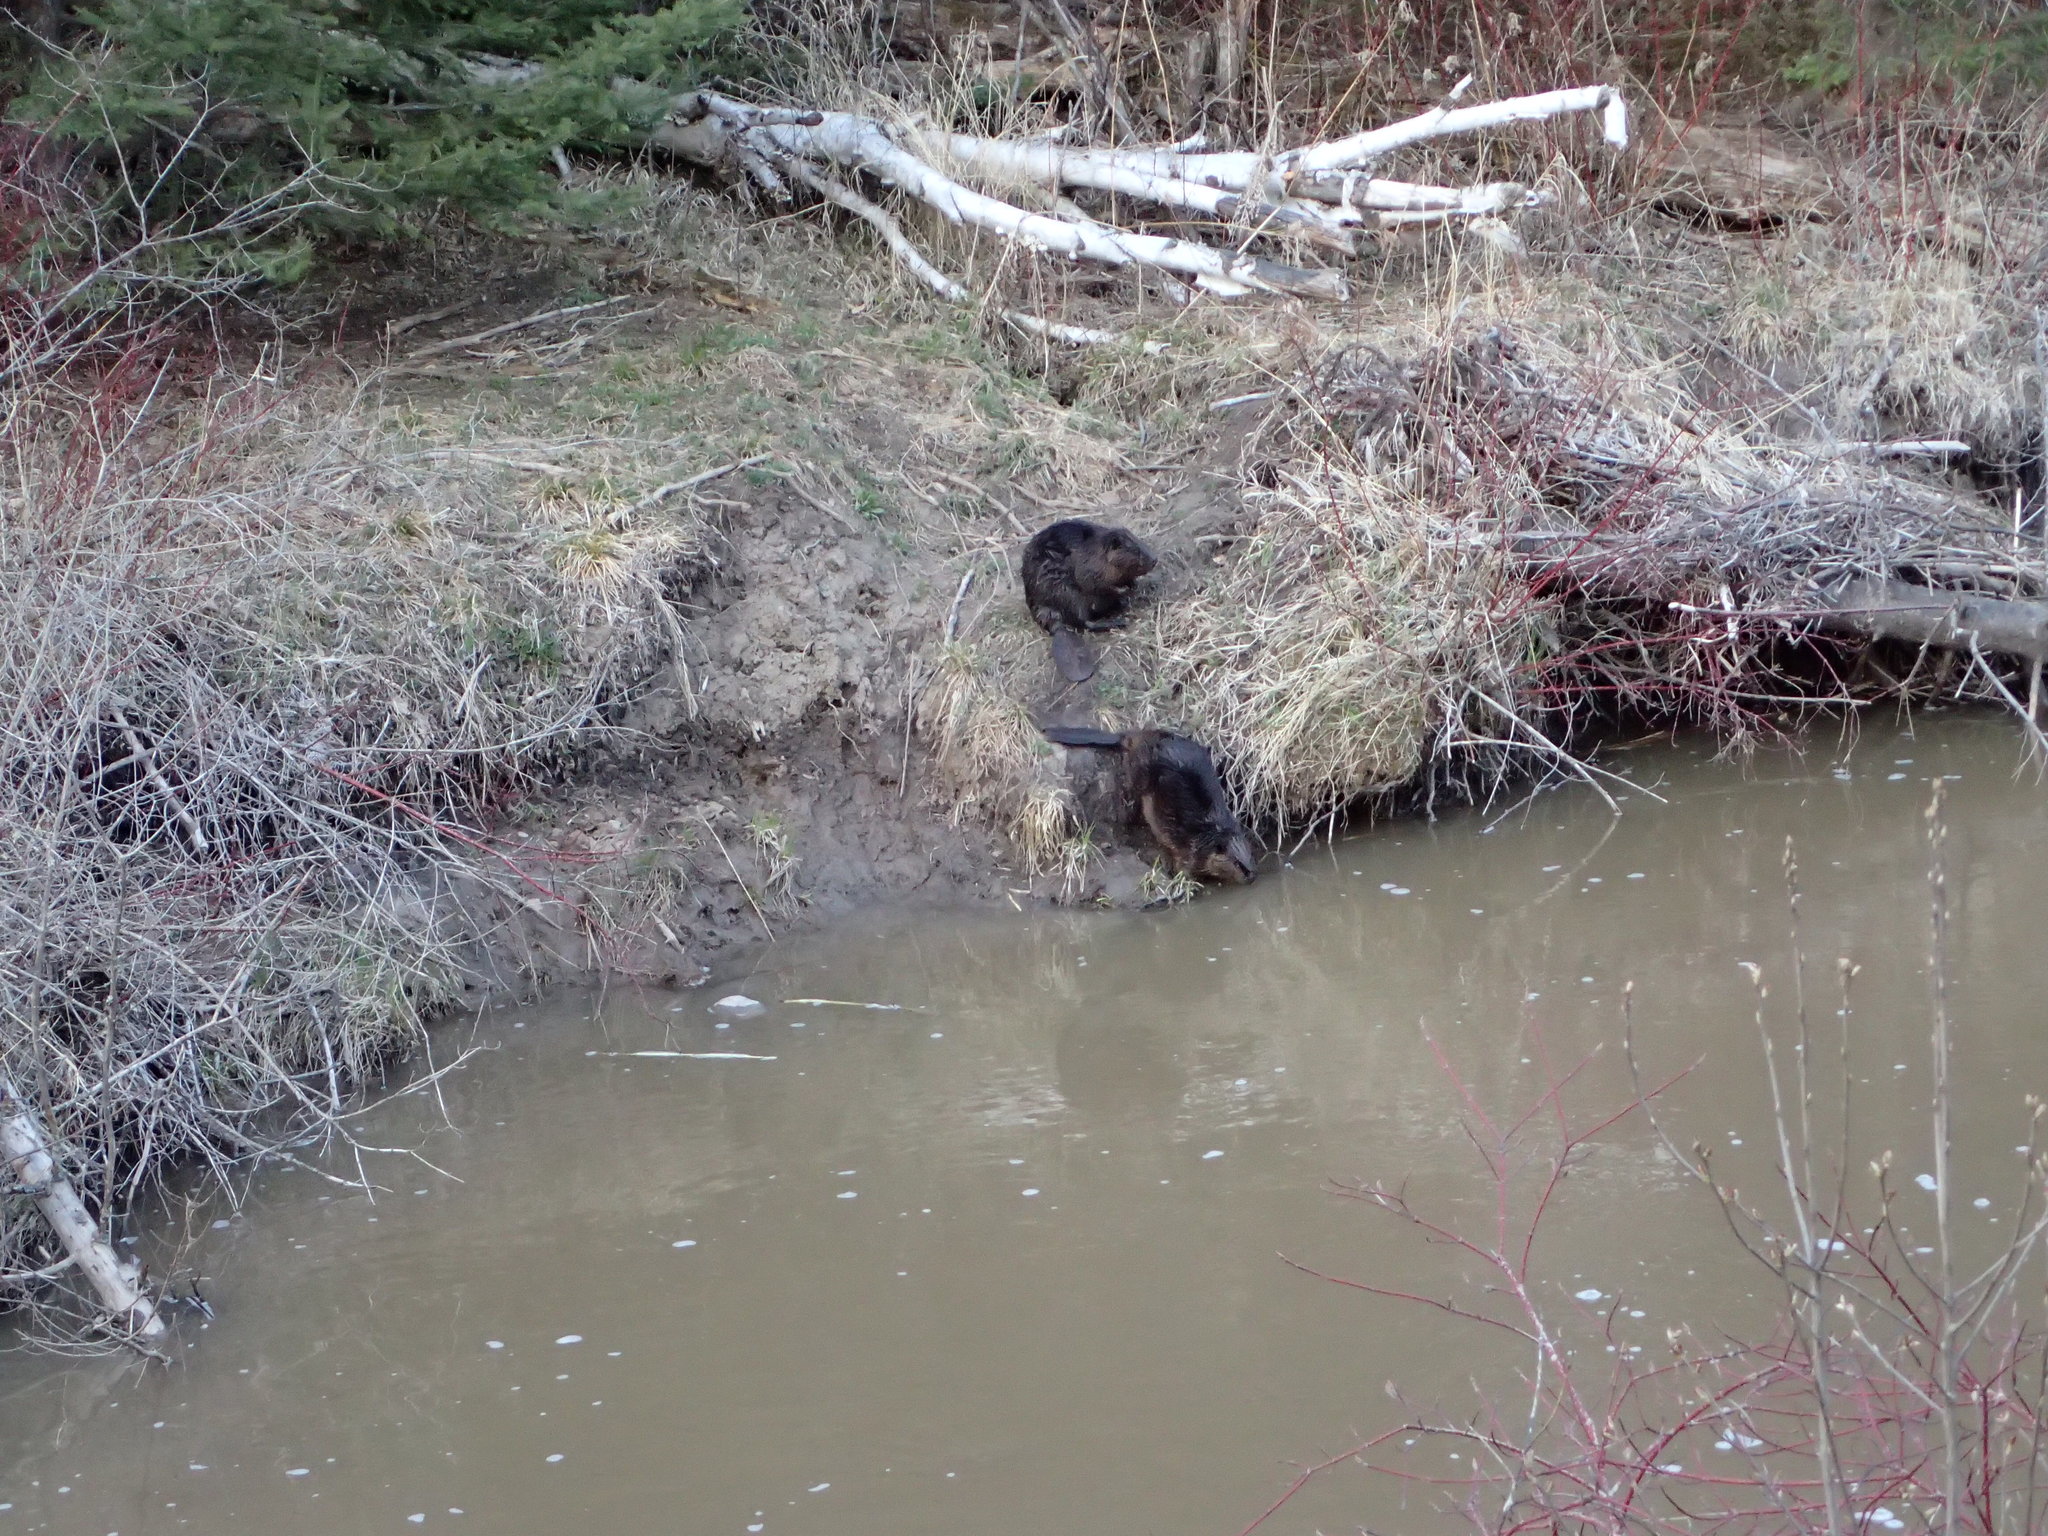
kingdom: Animalia
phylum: Chordata
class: Mammalia
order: Rodentia
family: Castoridae
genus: Castor
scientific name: Castor canadensis
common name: American beaver
